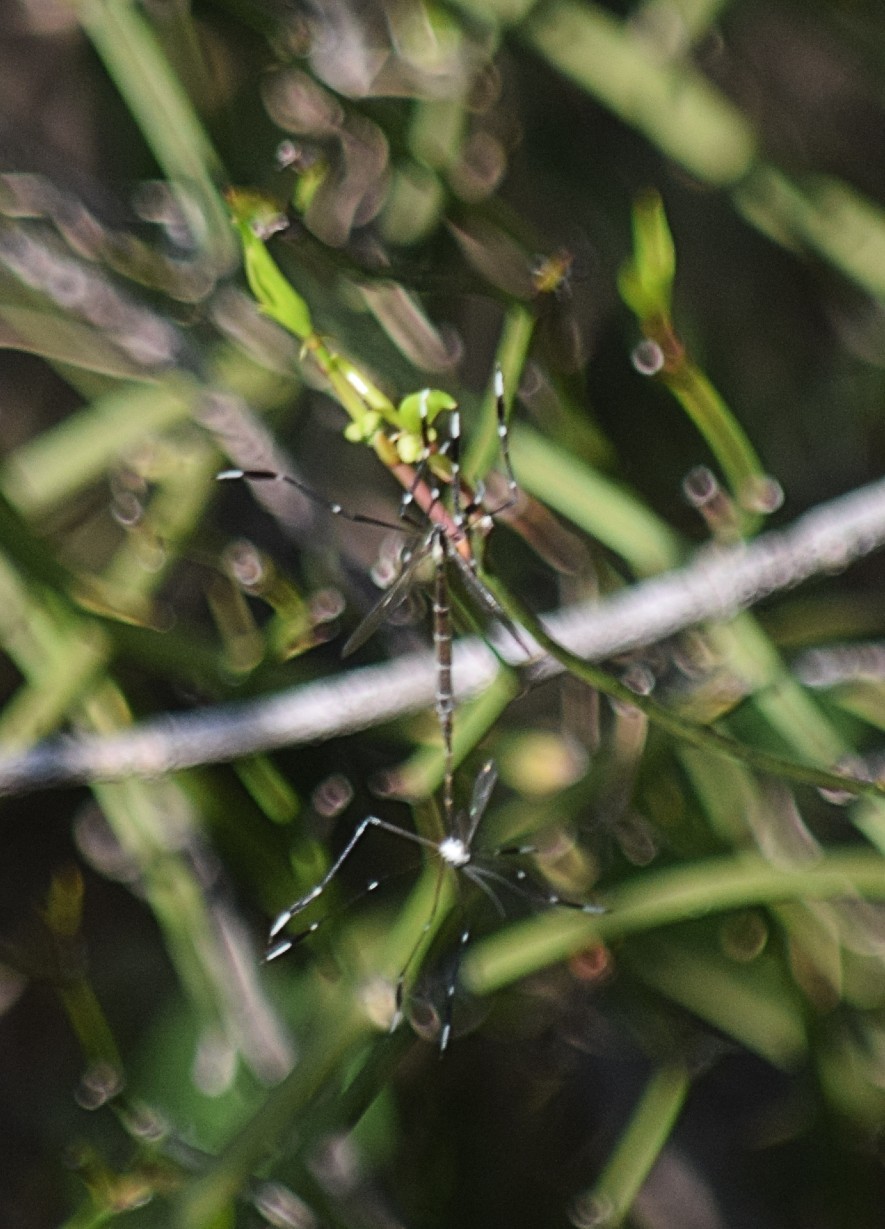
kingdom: Animalia
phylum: Arthropoda
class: Insecta
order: Diptera
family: Ptychopteridae
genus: Bittacomorpha
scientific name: Bittacomorpha clavipes
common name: Eastern phantom crane fly
